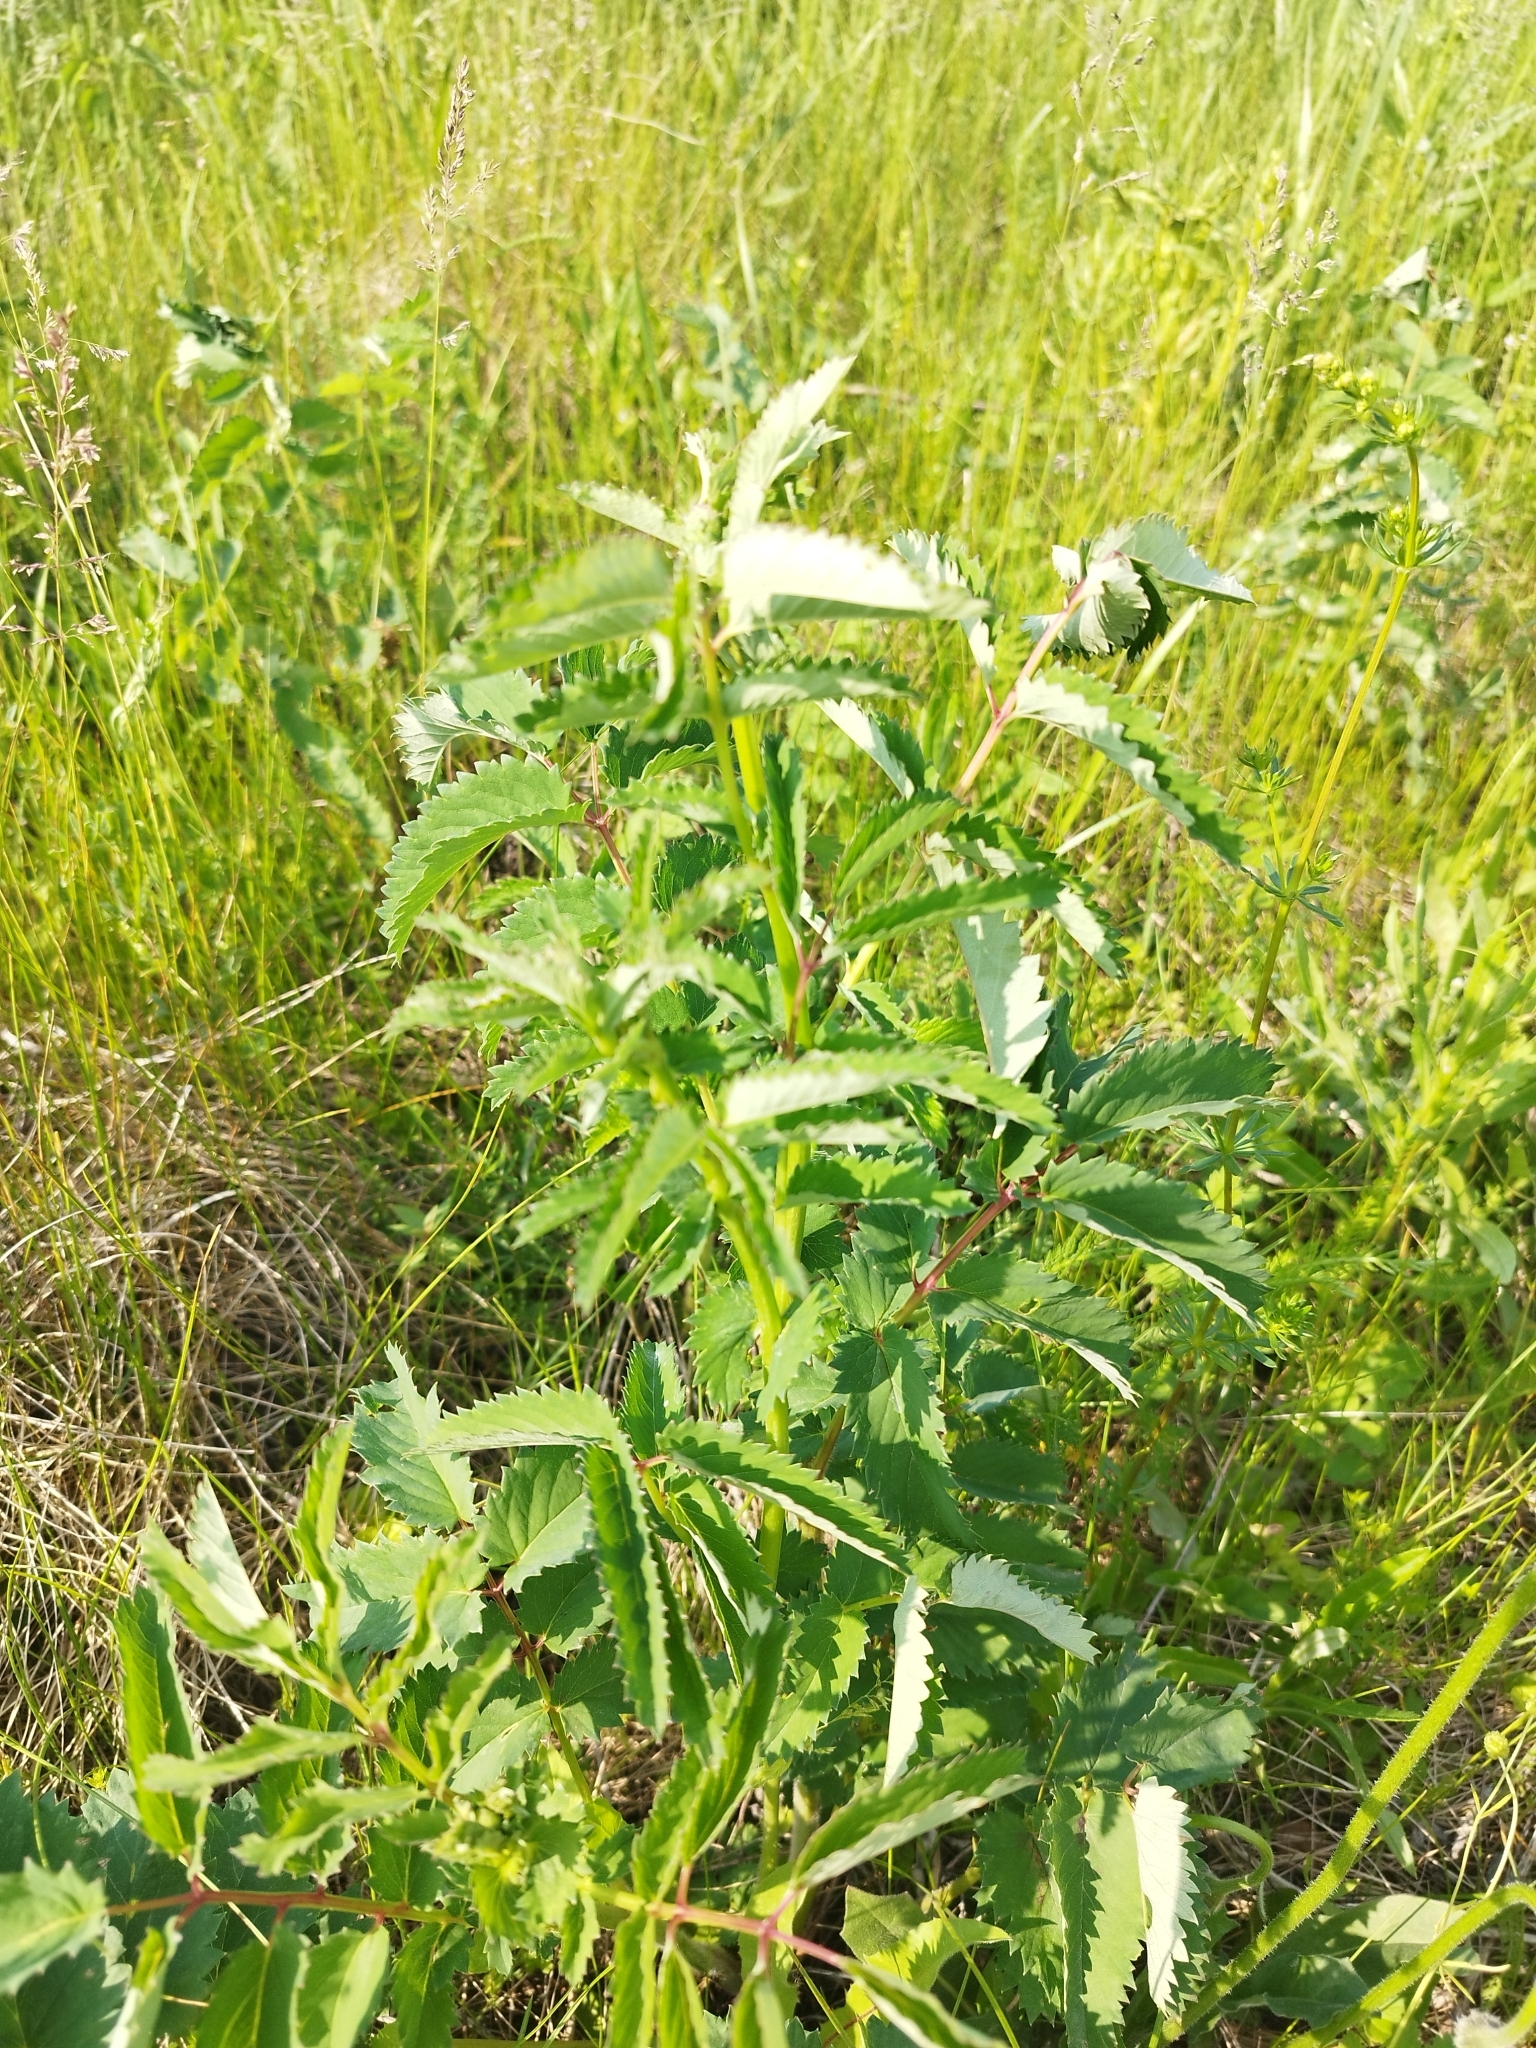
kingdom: Plantae
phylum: Tracheophyta
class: Magnoliopsida
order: Rosales
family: Rosaceae
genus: Sanguisorba
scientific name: Sanguisorba officinalis
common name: Great burnet
